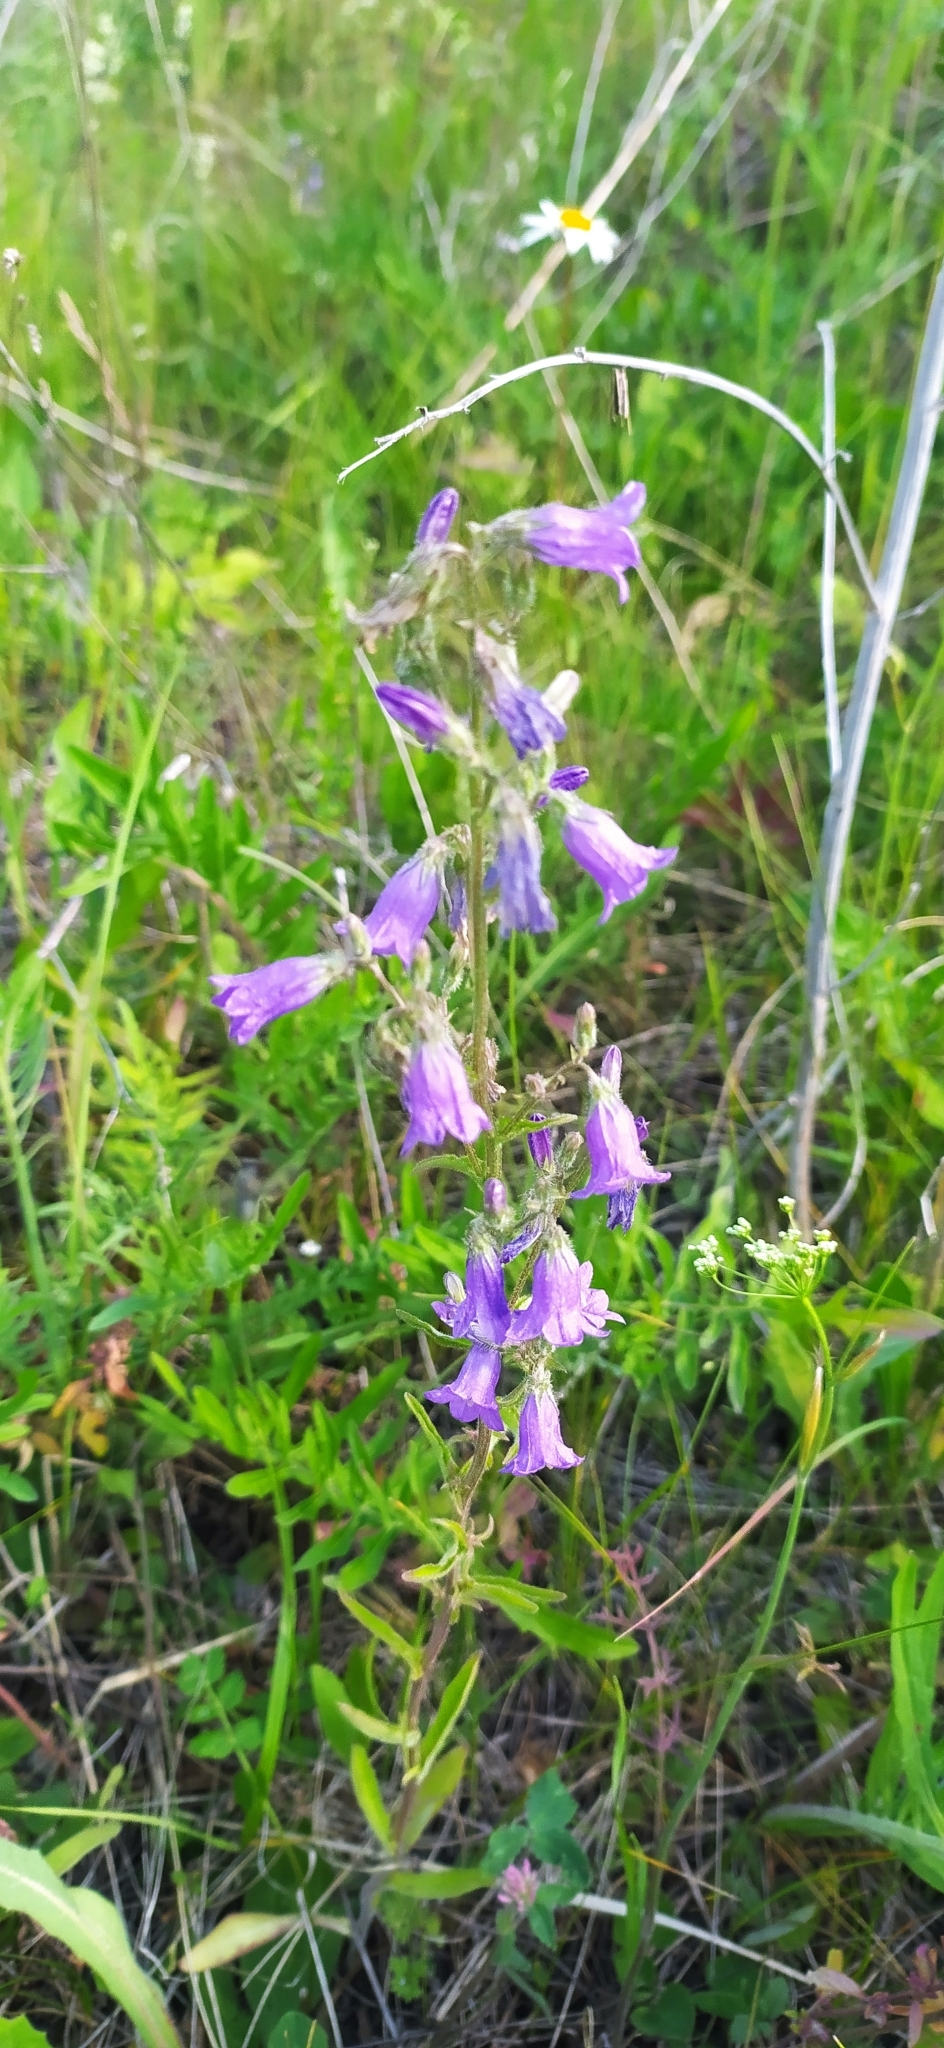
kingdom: Plantae
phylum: Tracheophyta
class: Magnoliopsida
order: Asterales
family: Campanulaceae
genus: Campanula
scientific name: Campanula sibirica
